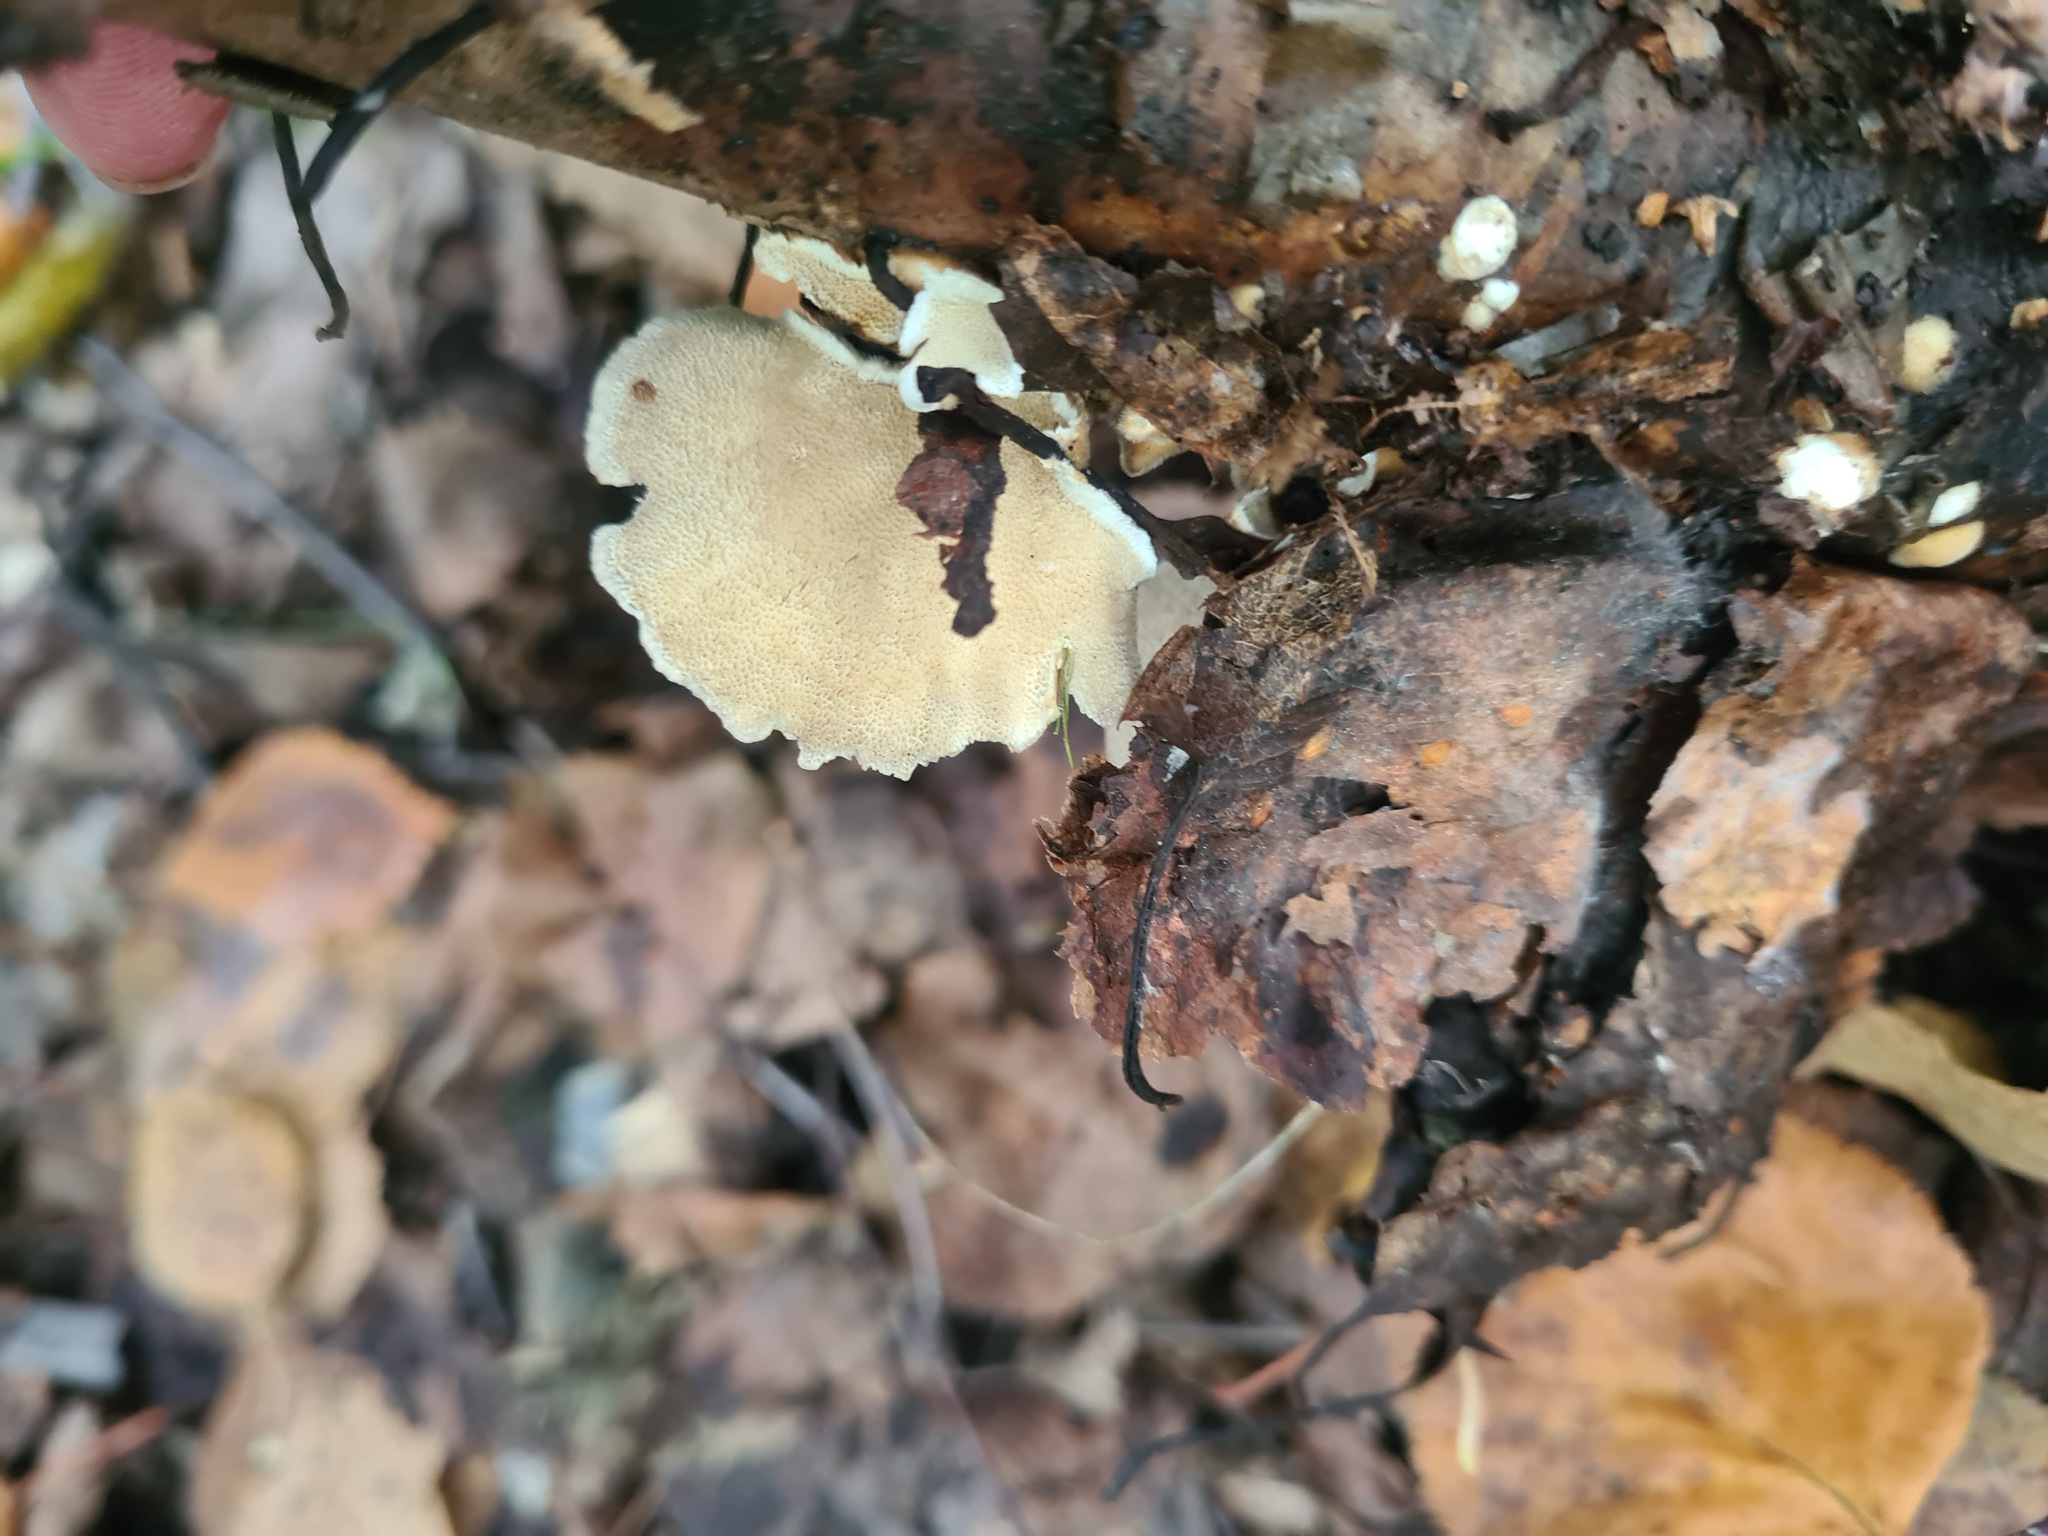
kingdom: Fungi
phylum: Basidiomycota
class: Agaricomycetes
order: Polyporales
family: Polyporaceae
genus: Trametes
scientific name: Trametes ochracea
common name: Ochre bracket
